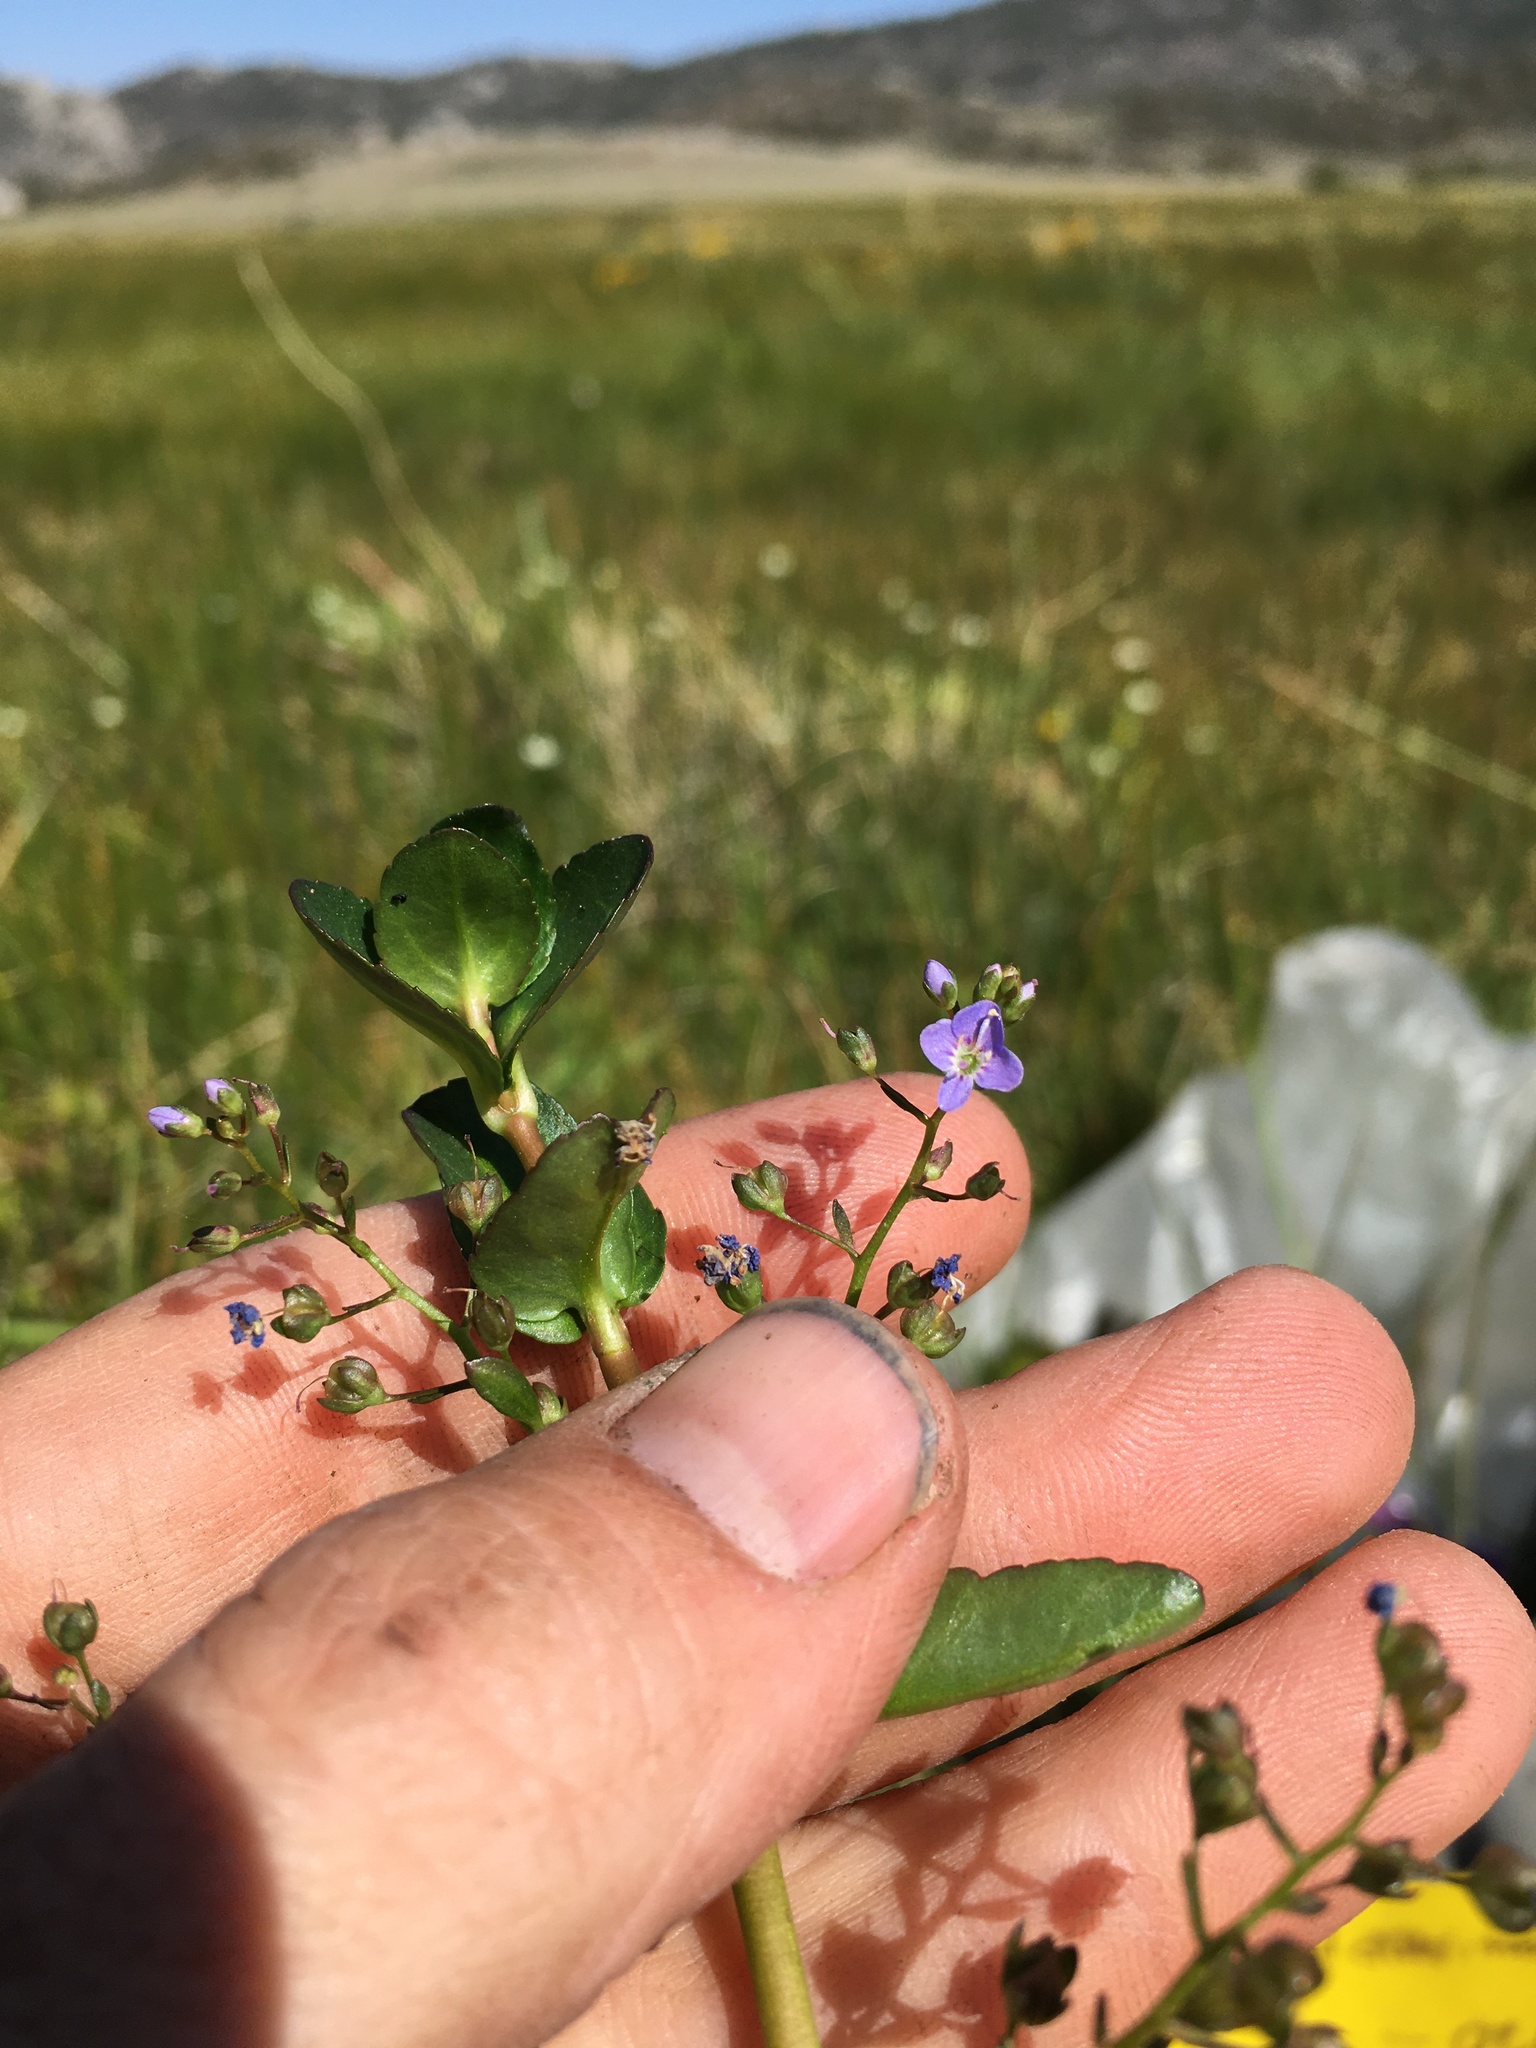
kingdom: Plantae
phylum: Tracheophyta
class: Magnoliopsida
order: Lamiales
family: Plantaginaceae
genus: Veronica
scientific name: Veronica americana
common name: American brooklime
